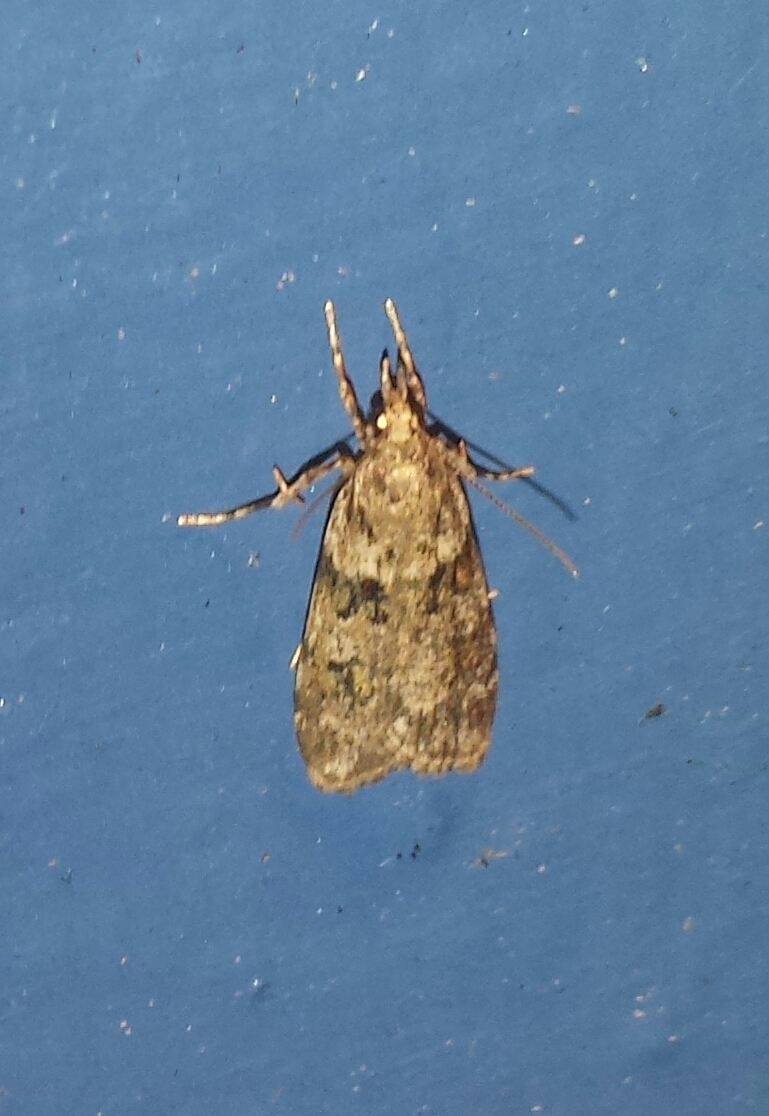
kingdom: Animalia
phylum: Arthropoda
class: Insecta
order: Lepidoptera
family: Crambidae
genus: Scoparia
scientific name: Scoparia biplagialis
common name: Double-striped scoparia moth
